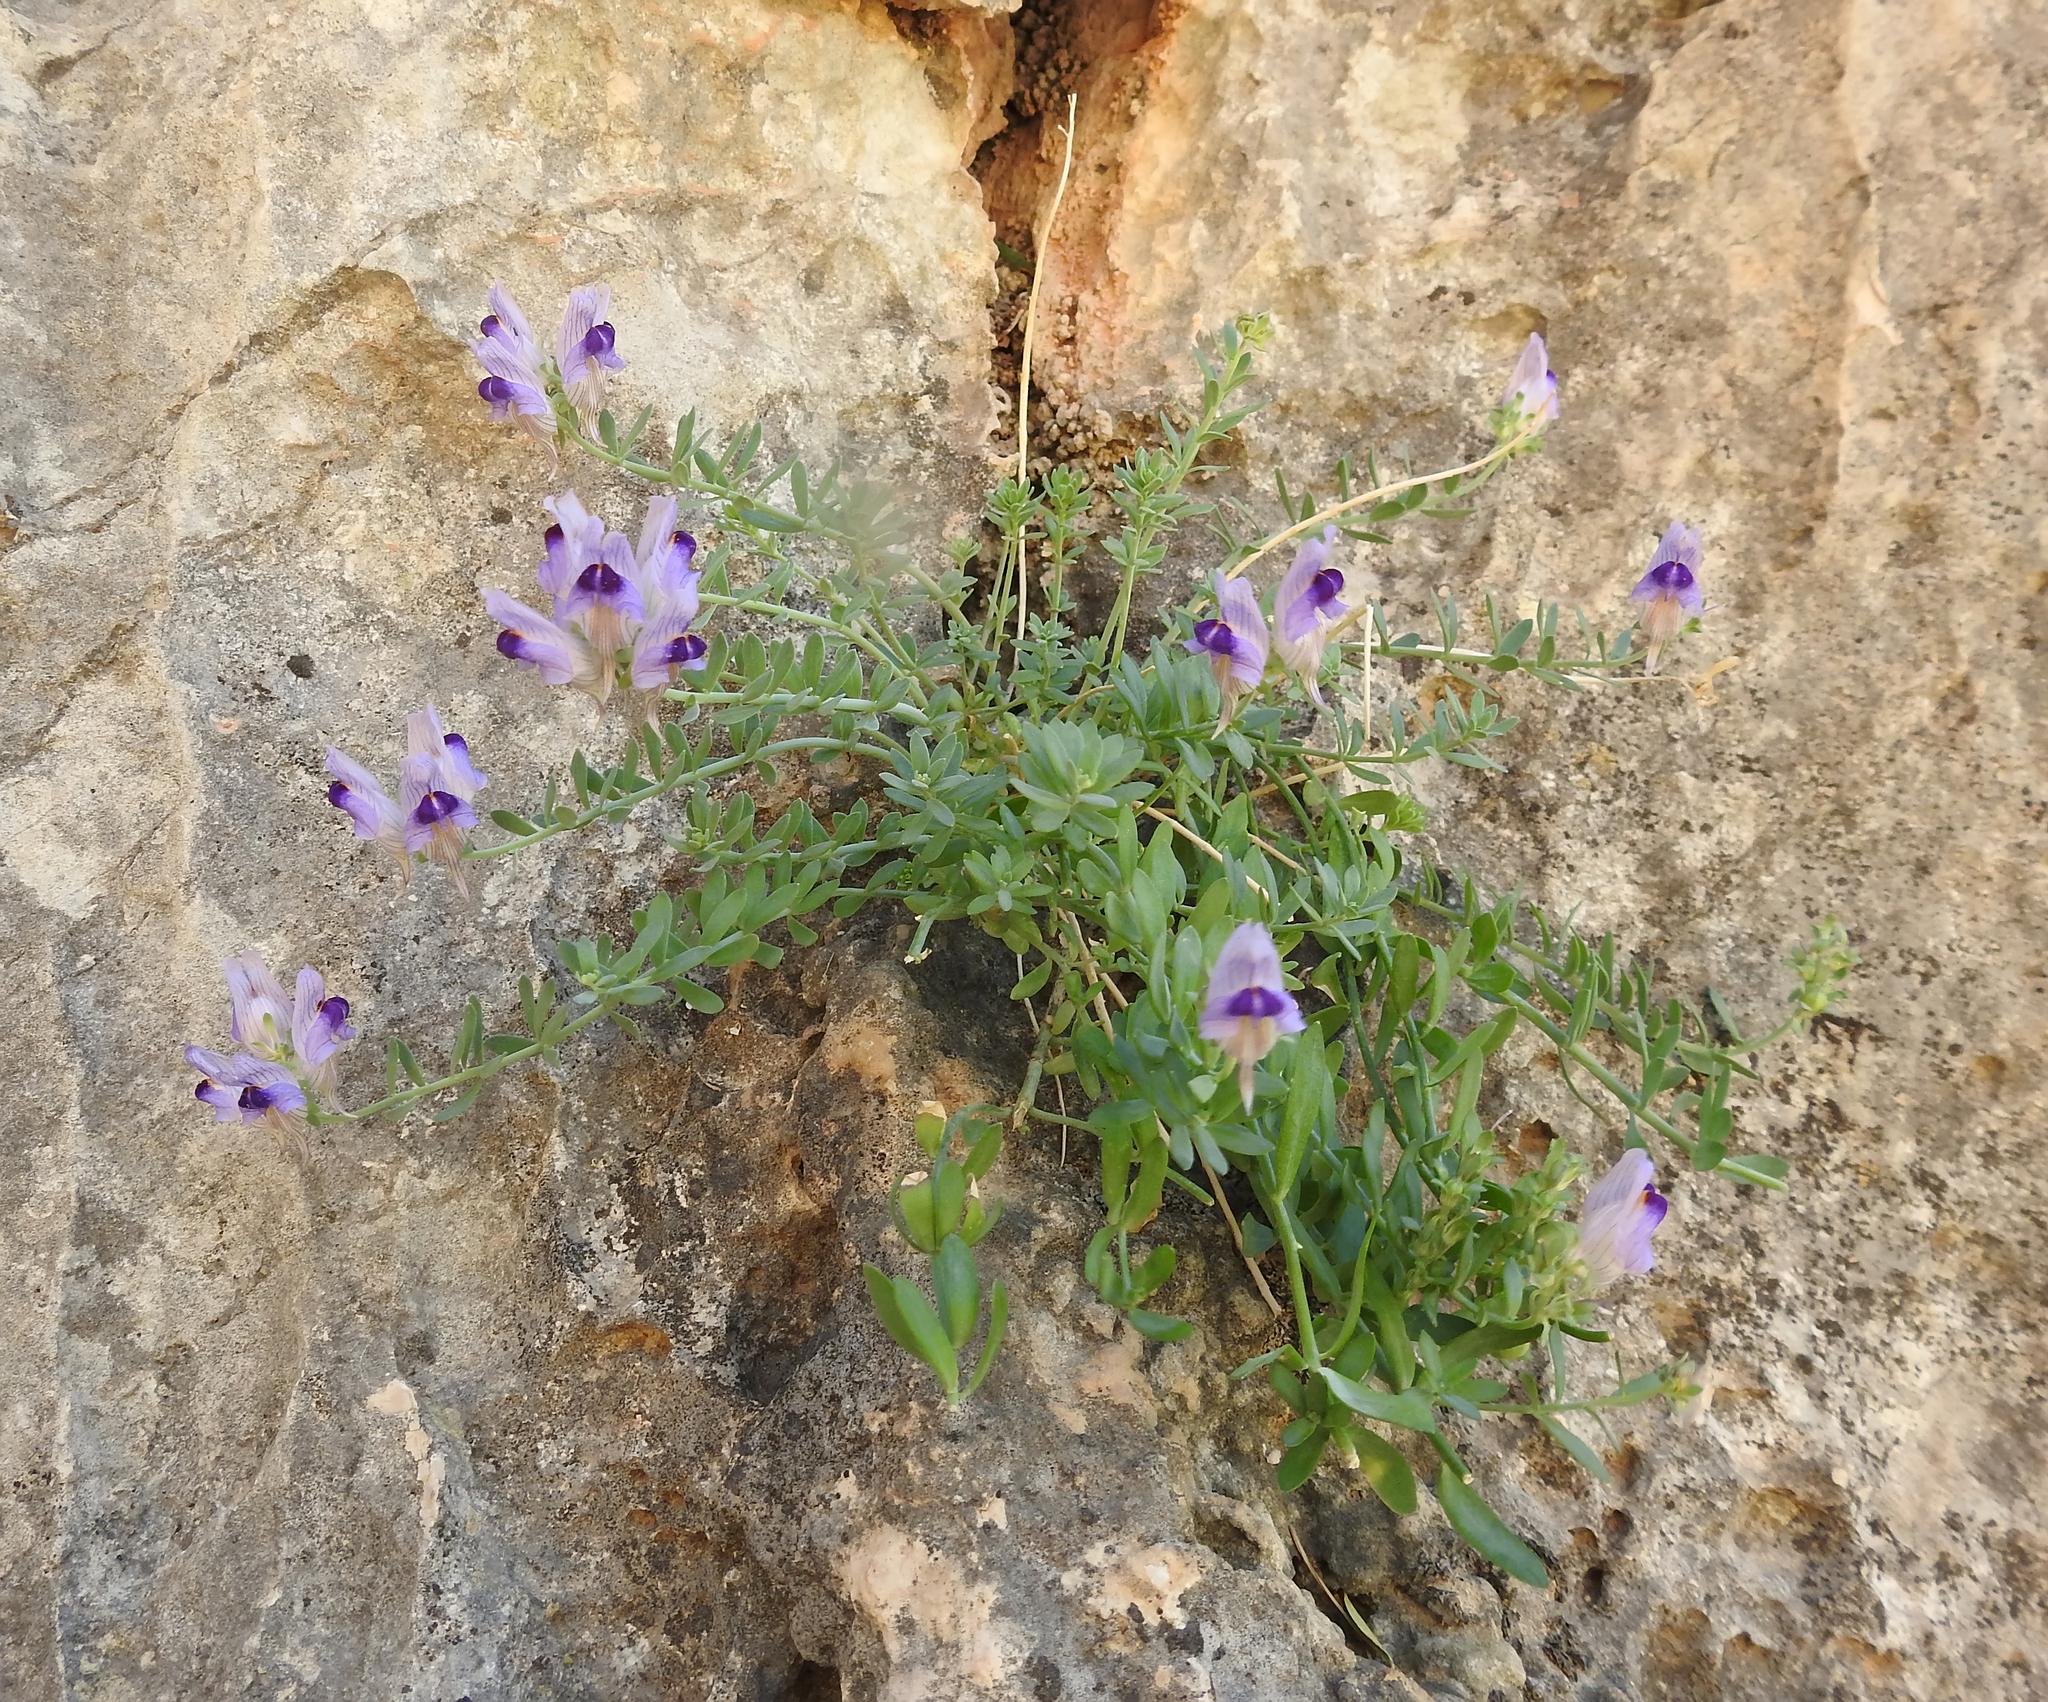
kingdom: Plantae
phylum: Tracheophyta
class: Magnoliopsida
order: Lamiales
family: Plantaginaceae
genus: Linaria
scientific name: Linaria verticillata
